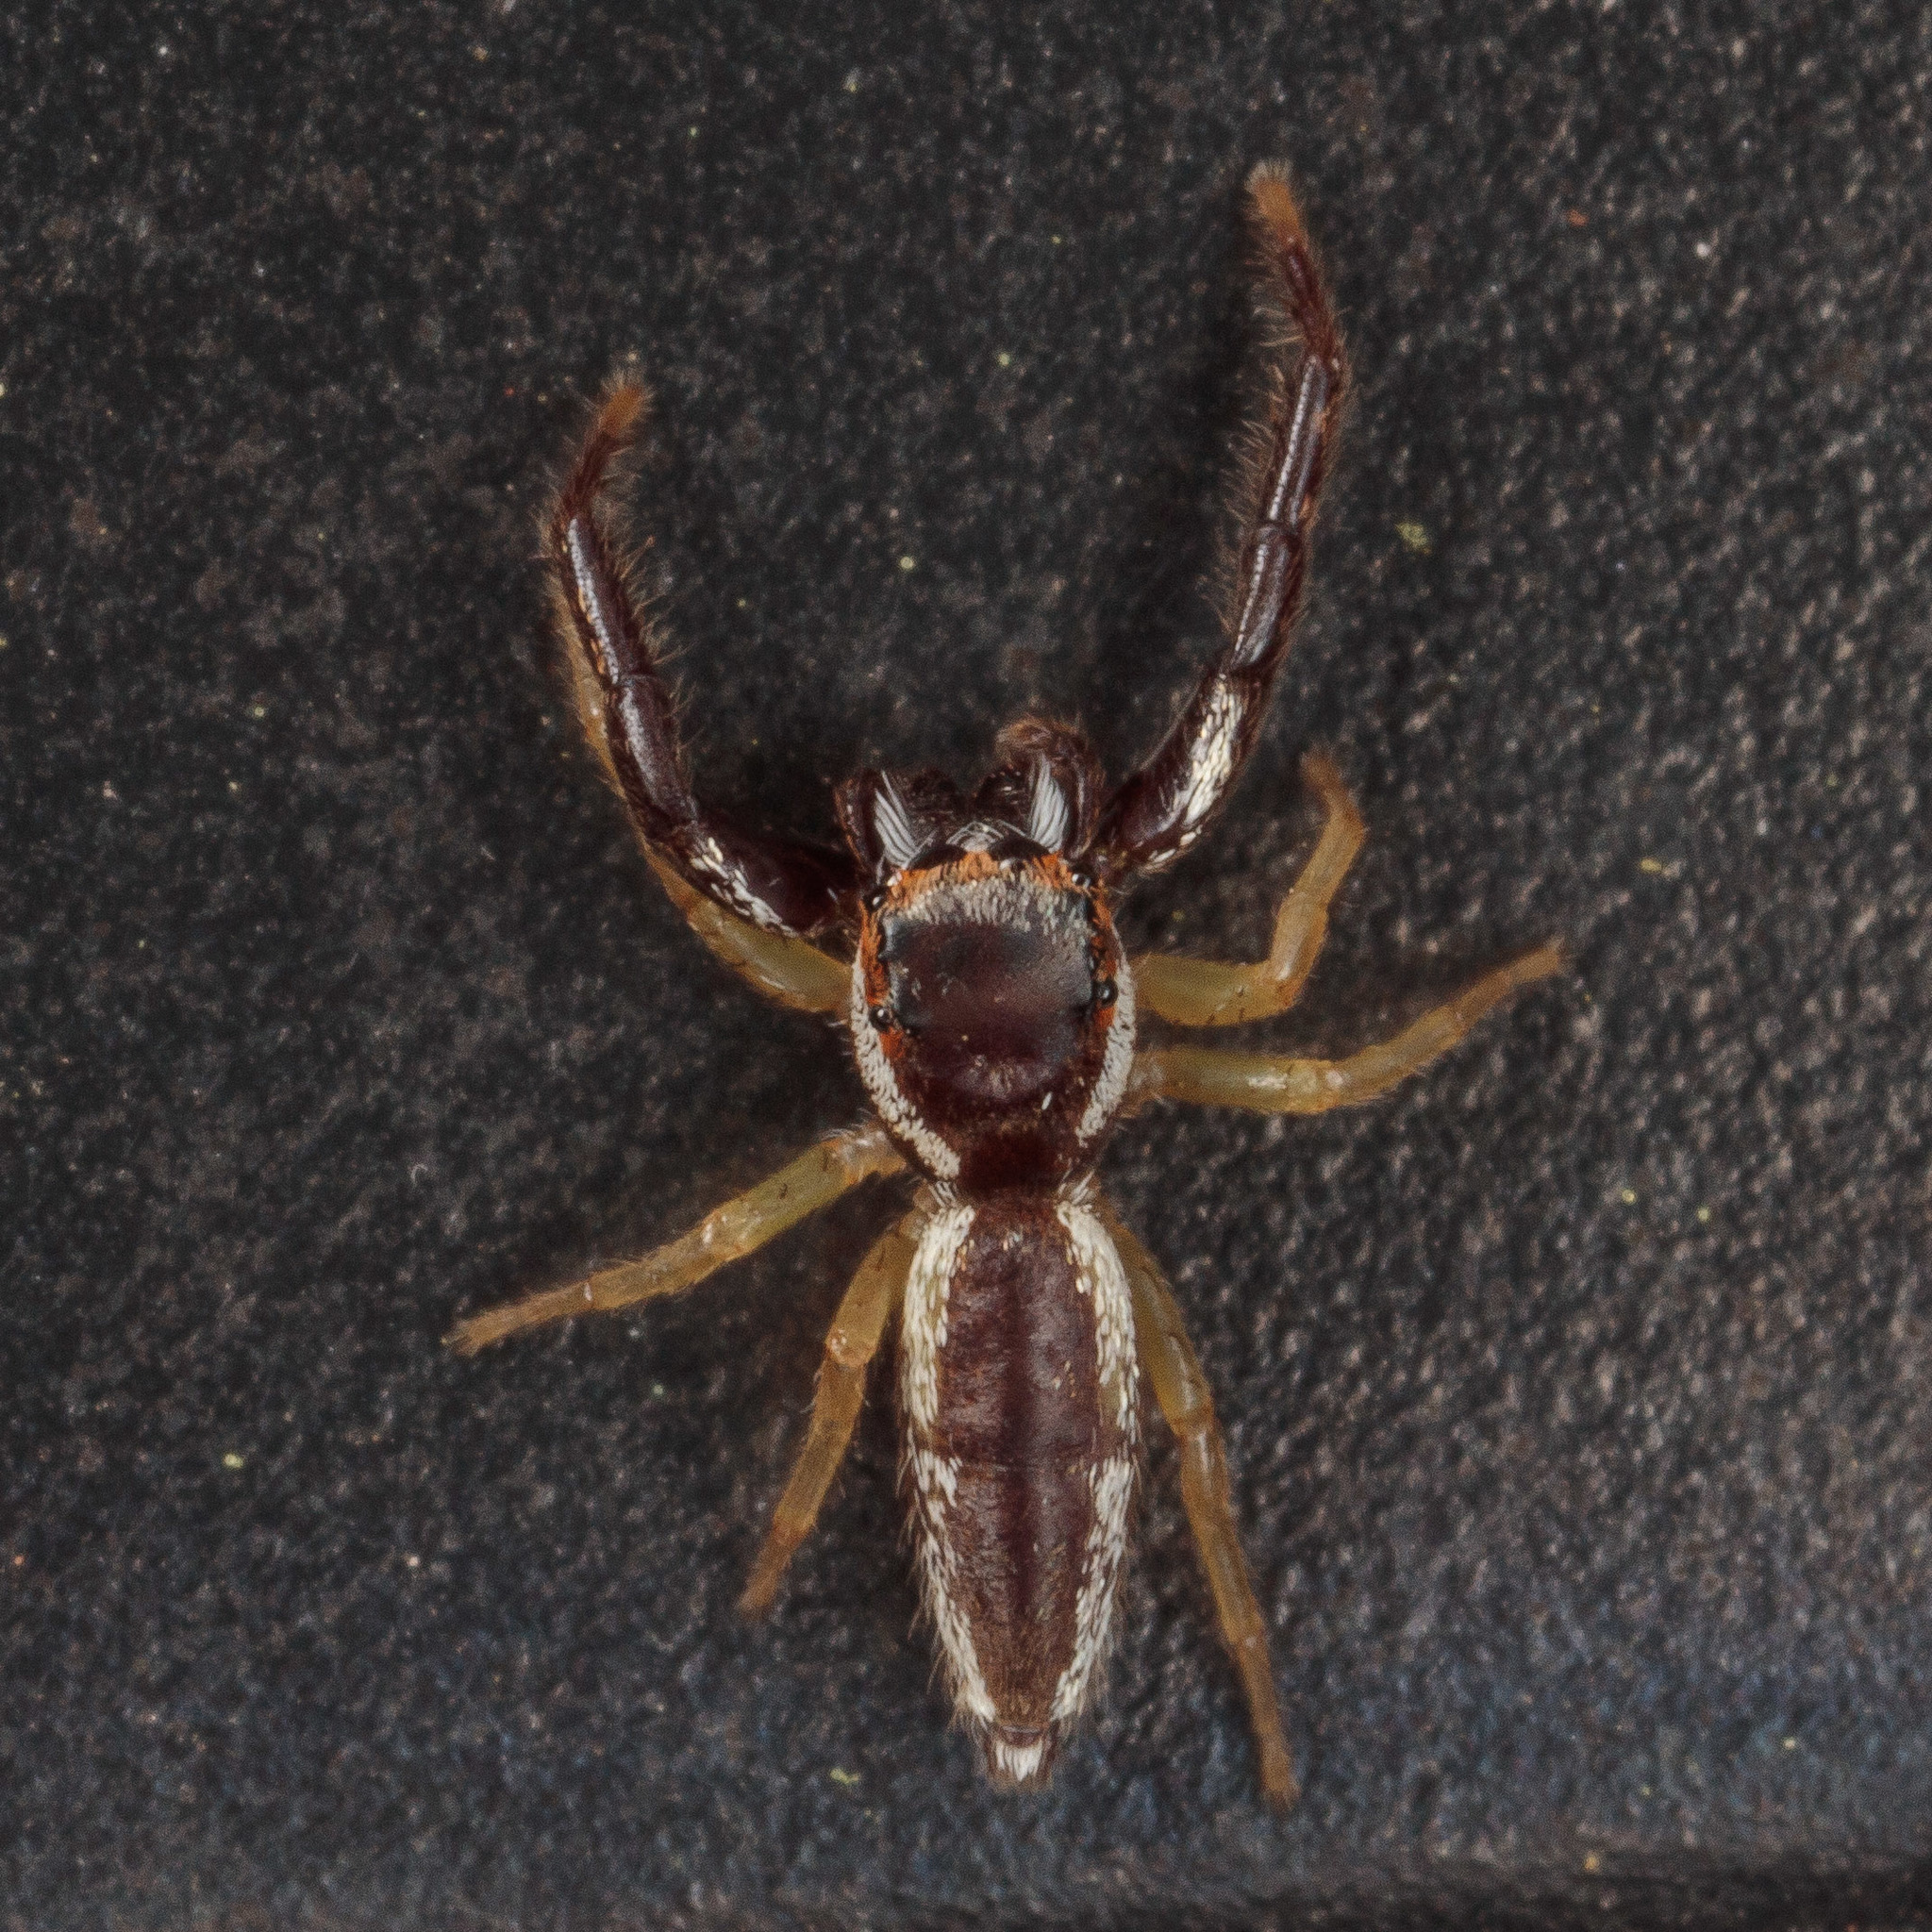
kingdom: Animalia
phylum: Arthropoda
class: Arachnida
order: Araneae
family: Salticidae
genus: Hentzia
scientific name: Hentzia palmarum
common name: Common hentz jumping spider
